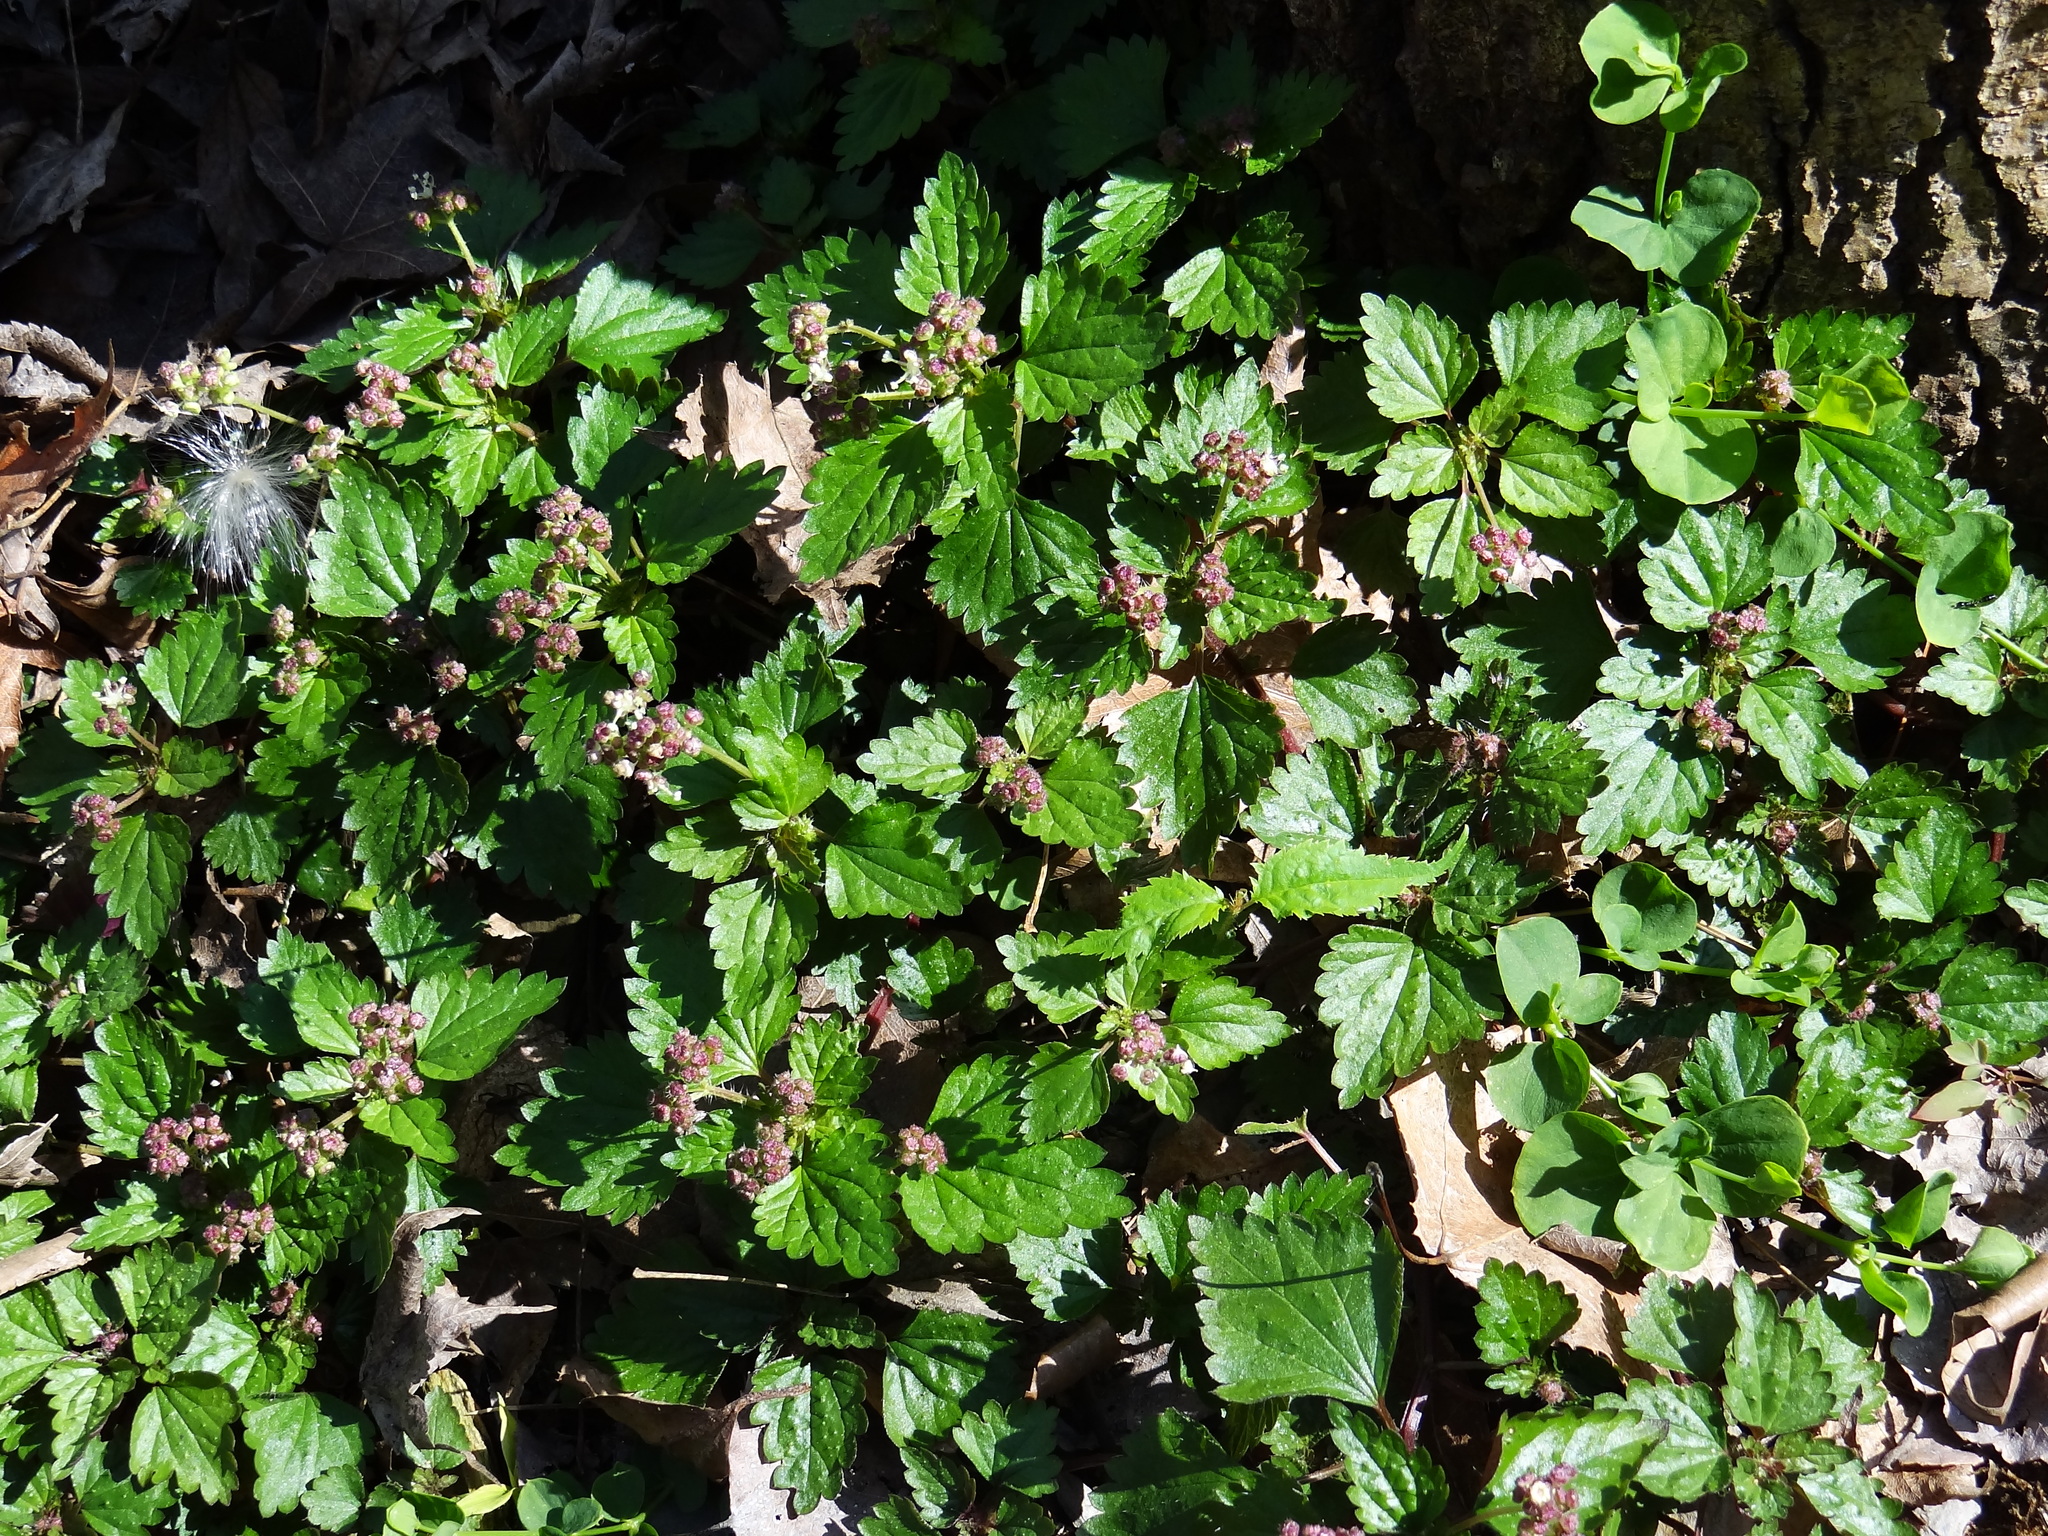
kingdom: Plantae
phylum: Tracheophyta
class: Magnoliopsida
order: Rosales
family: Urticaceae
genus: Nanocnide
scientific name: Nanocnide japonica
